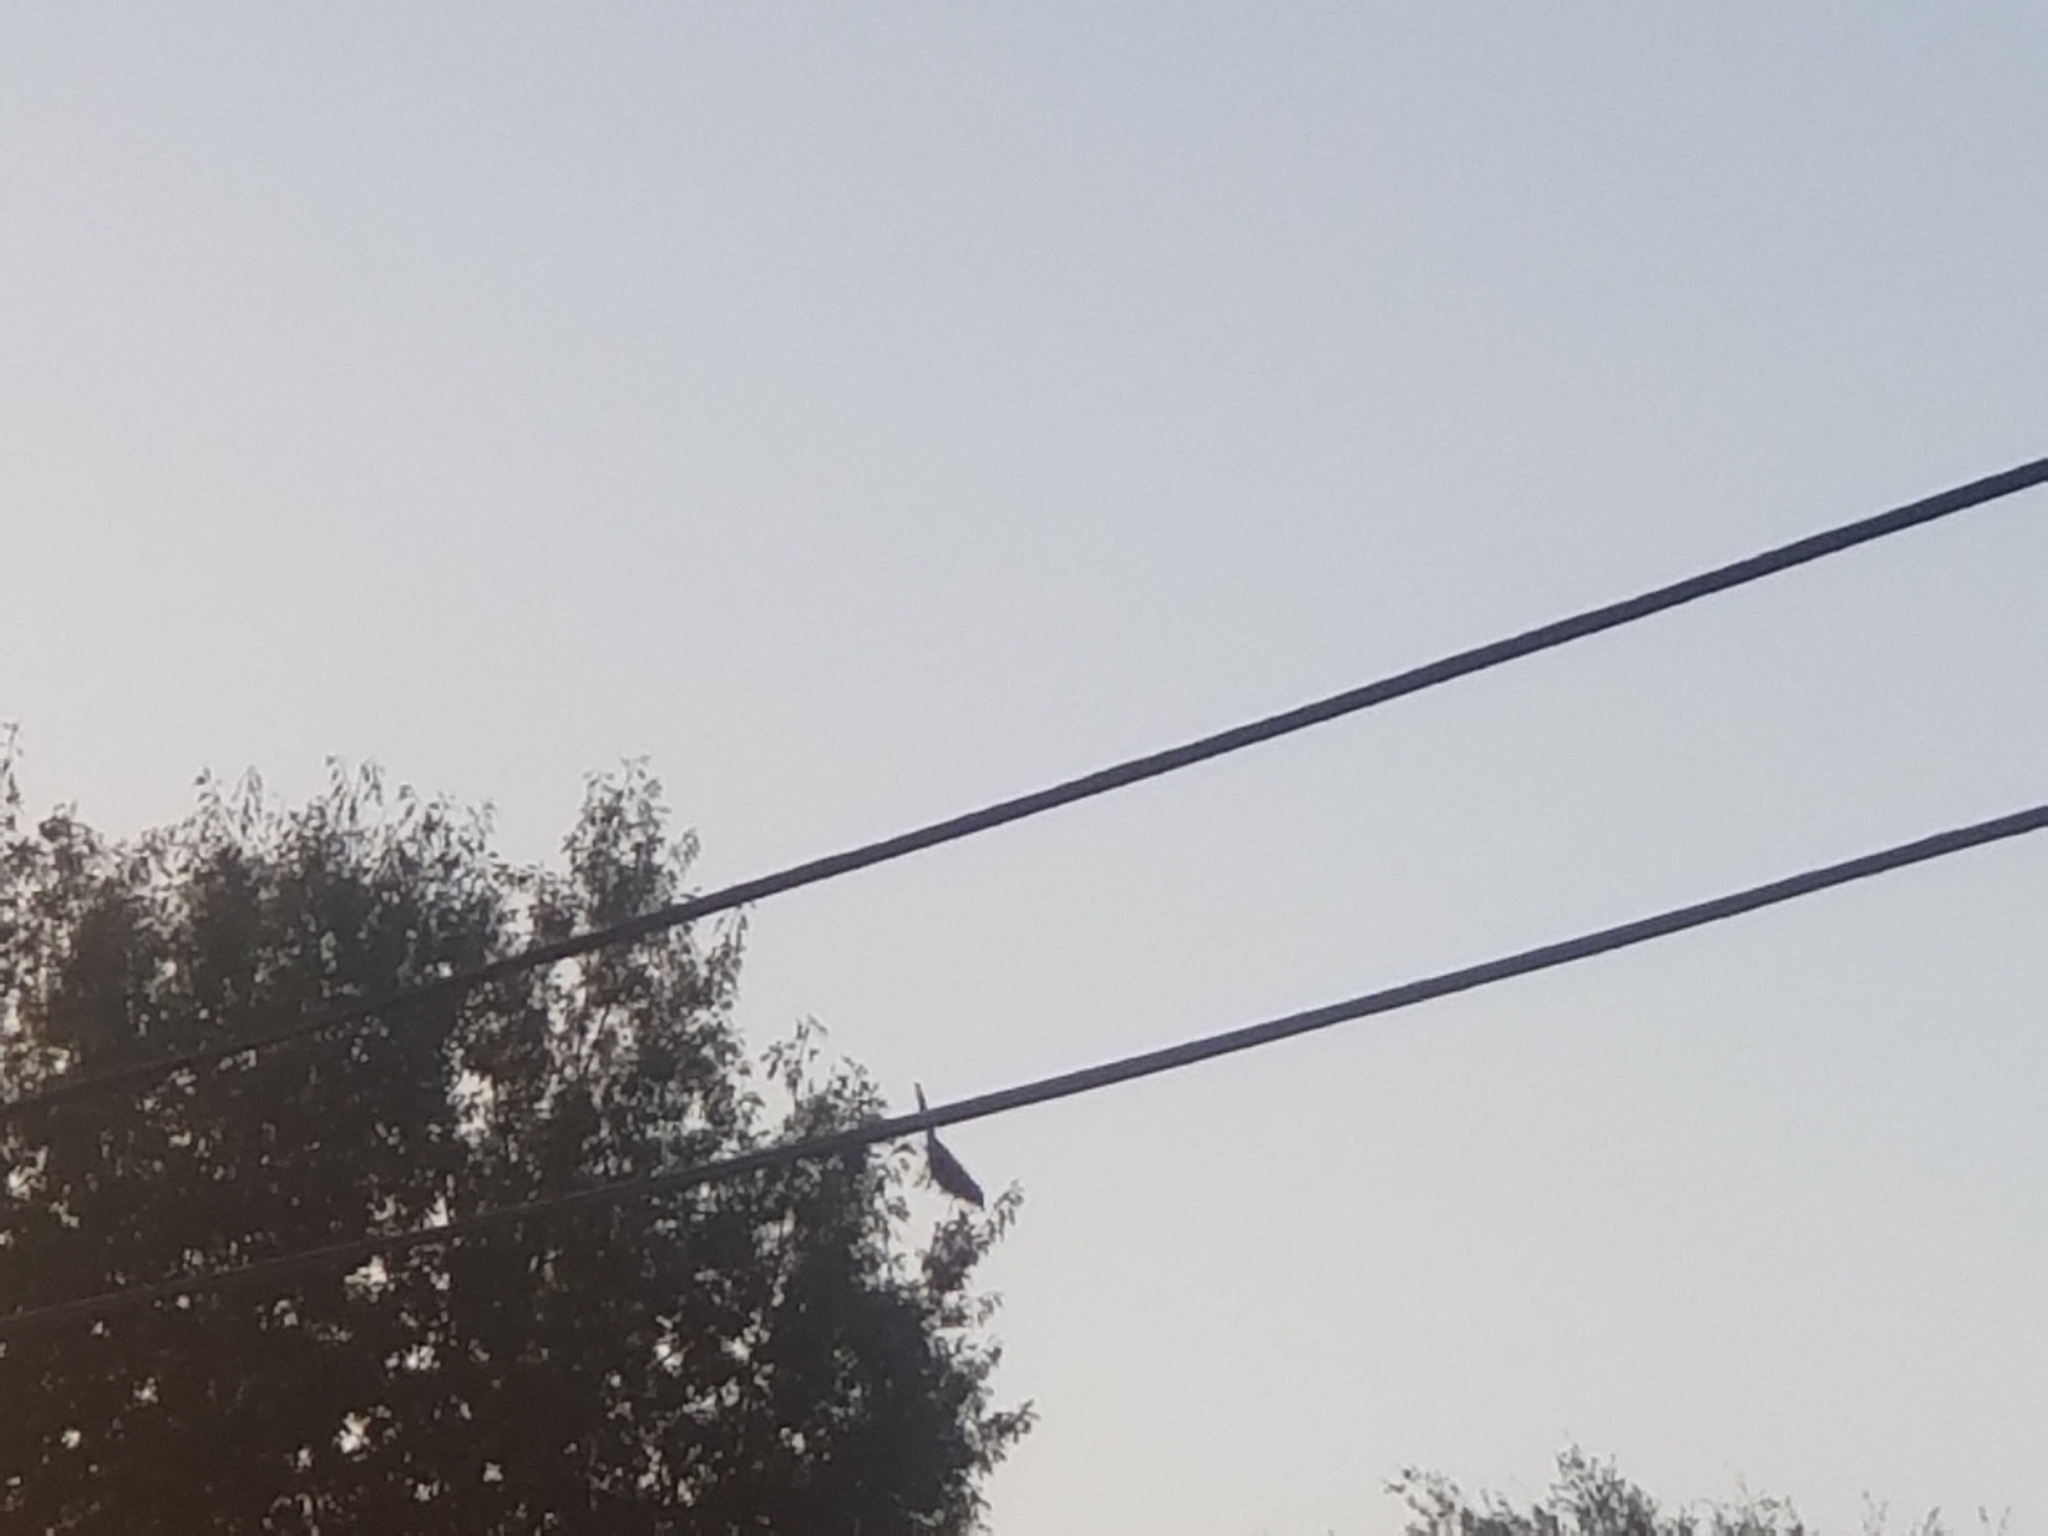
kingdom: Animalia
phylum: Chordata
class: Aves
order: Passeriformes
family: Mimidae
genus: Dumetella
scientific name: Dumetella carolinensis
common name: Gray catbird
